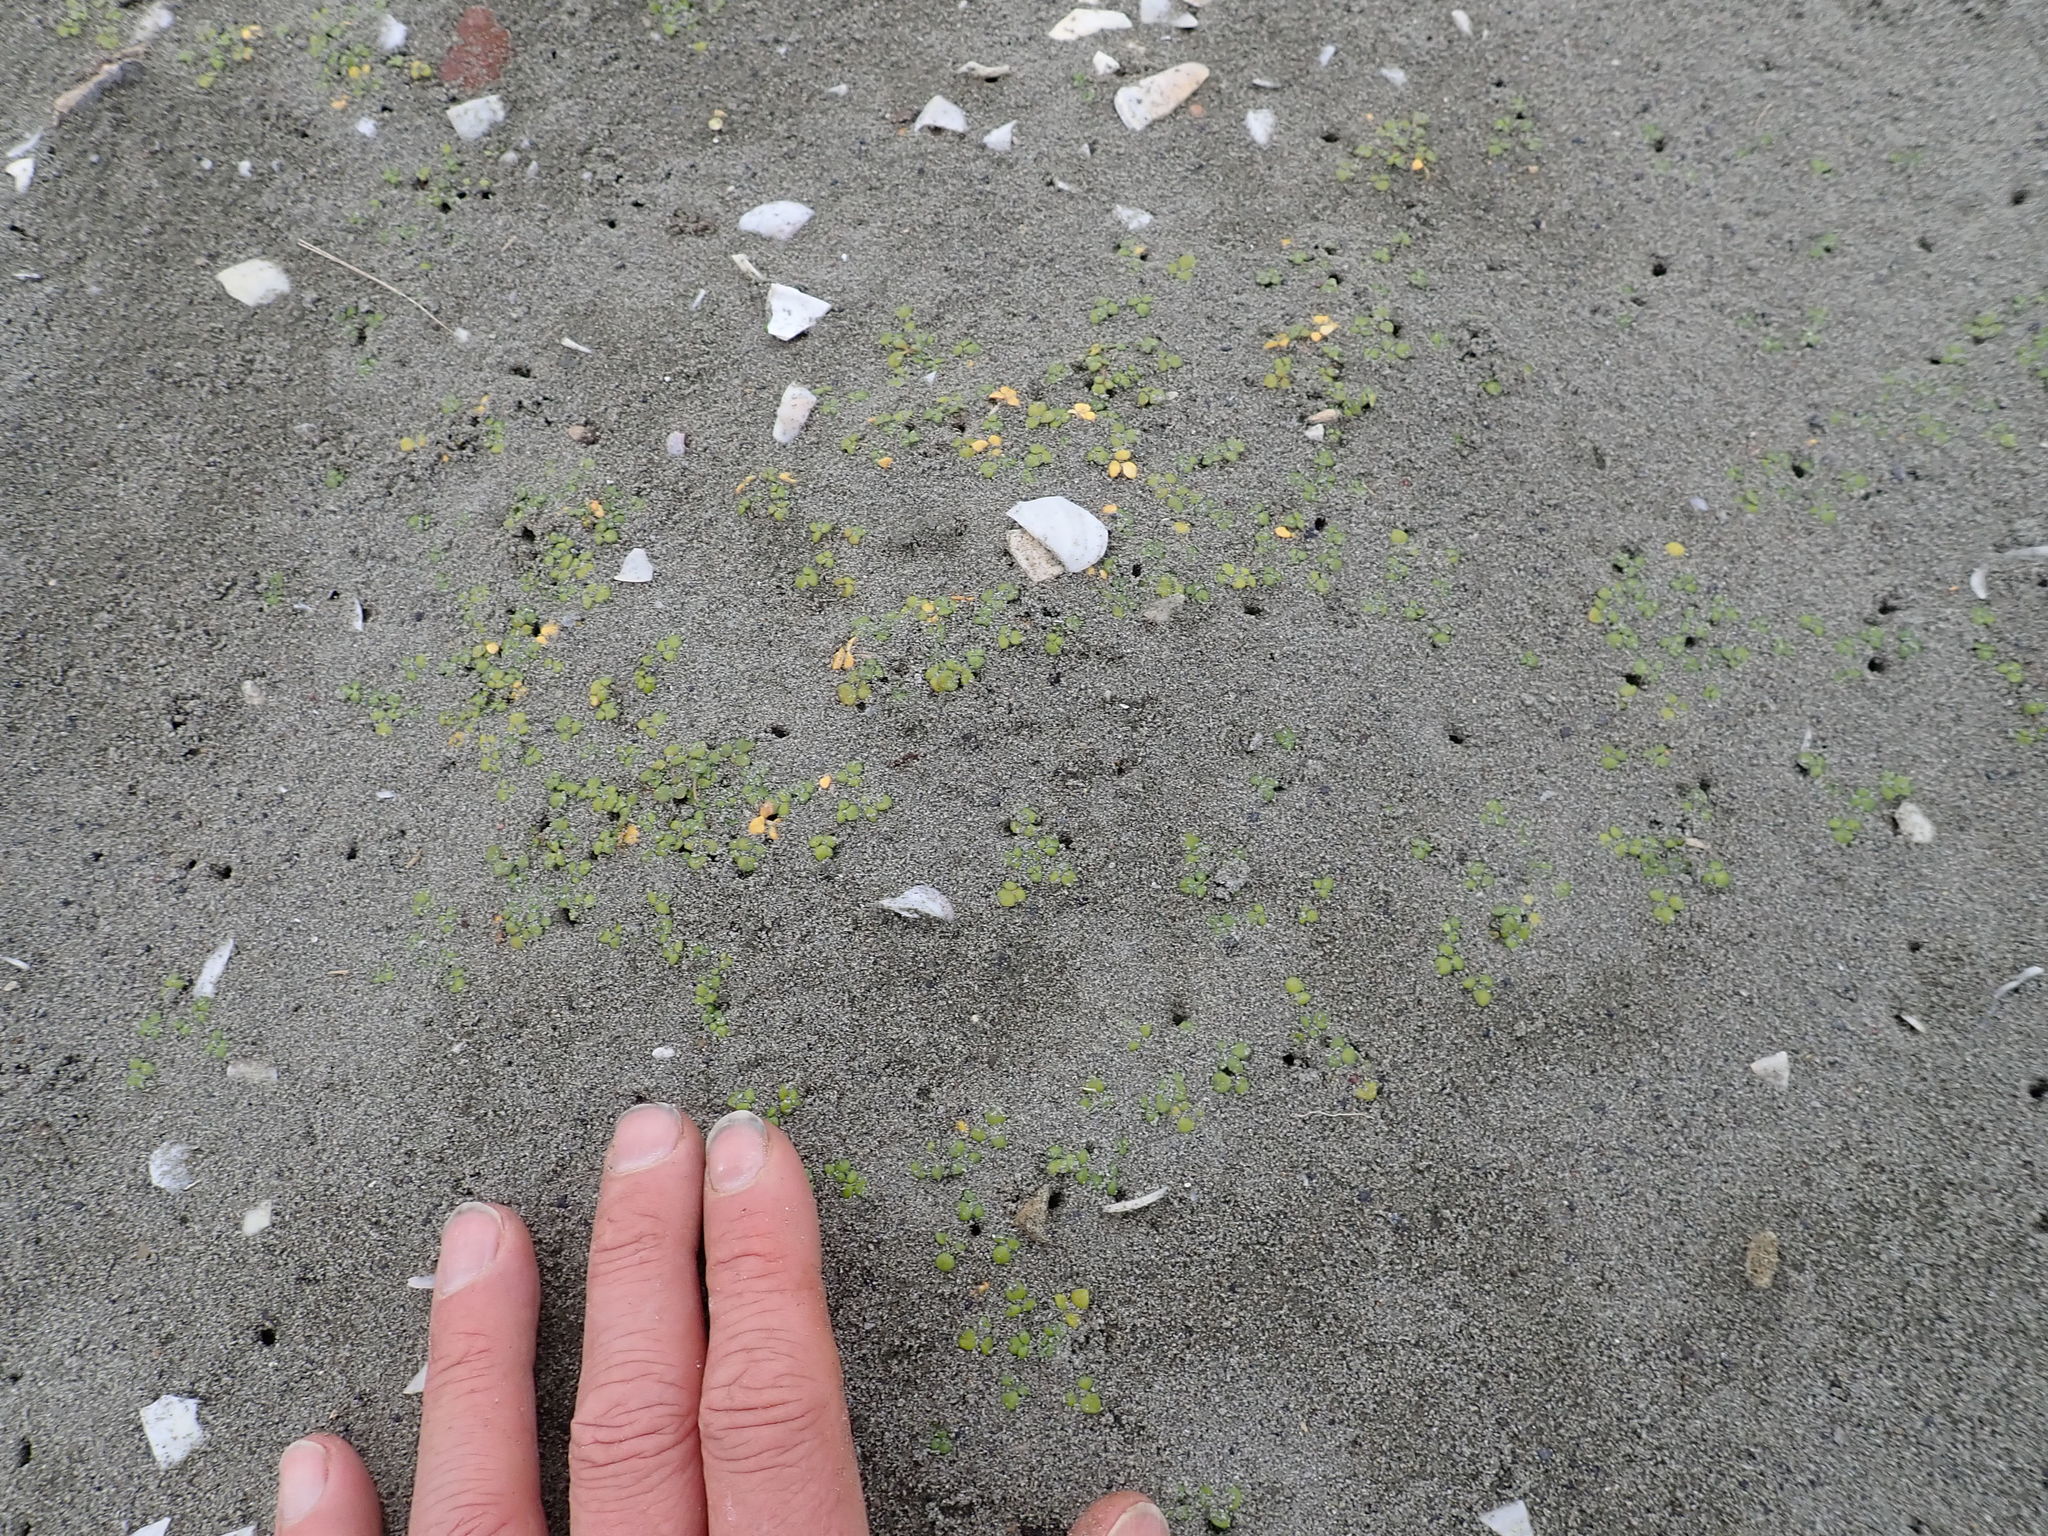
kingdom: Plantae
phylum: Tracheophyta
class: Magnoliopsida
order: Ranunculales
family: Ranunculaceae
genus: Ranunculus
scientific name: Ranunculus acaulis
